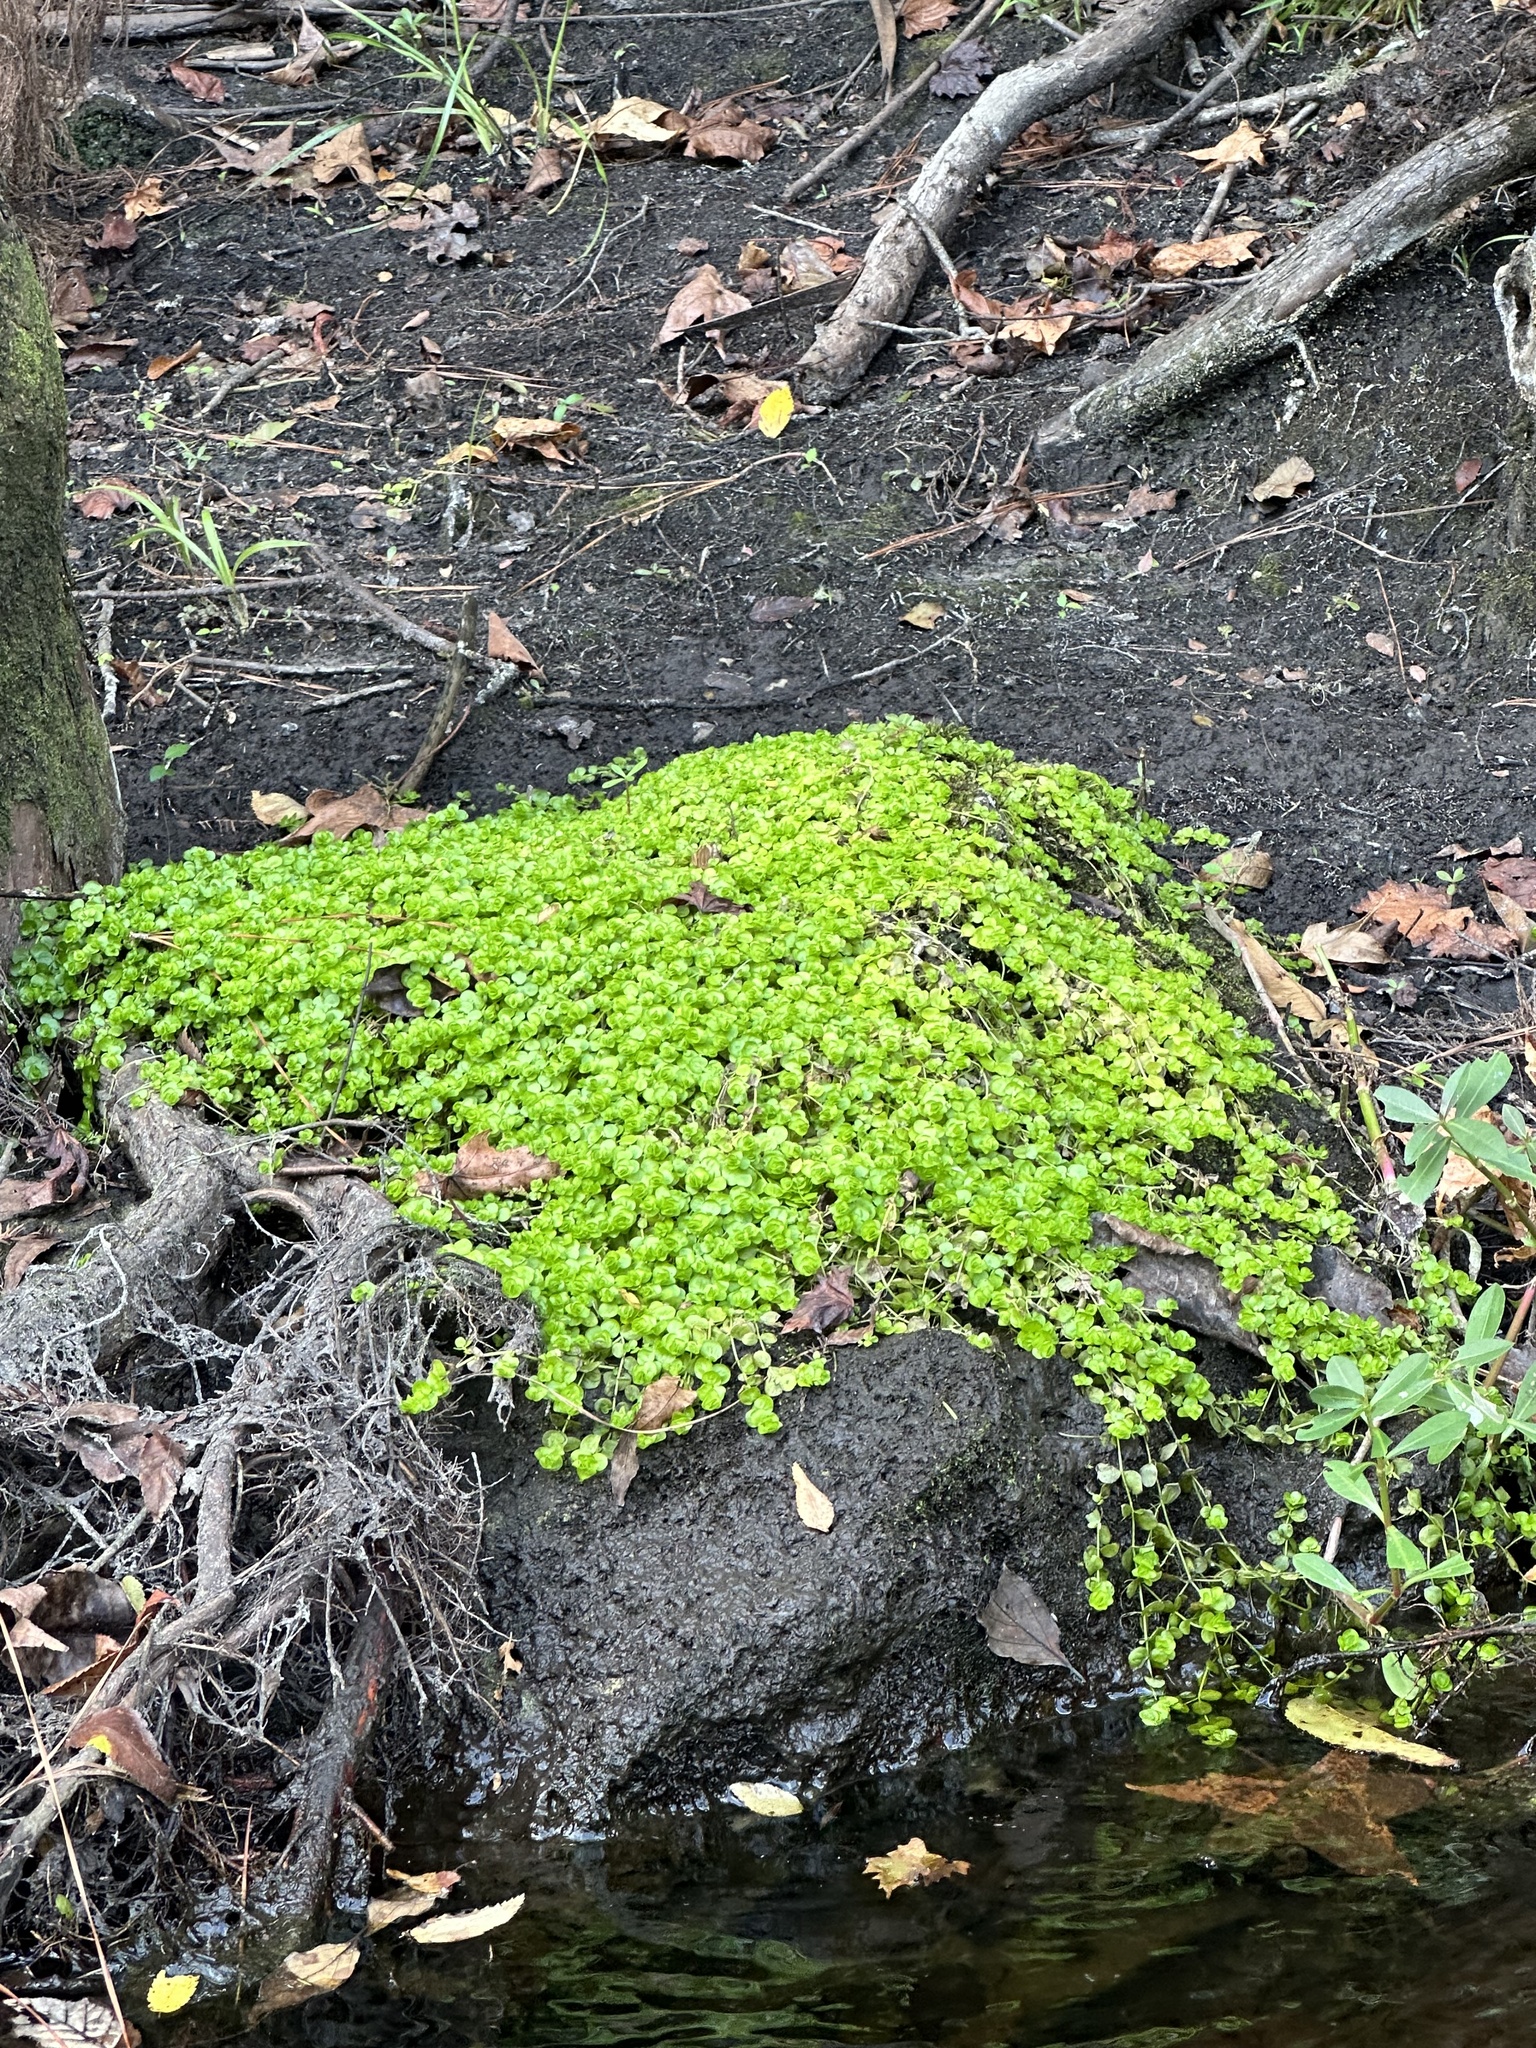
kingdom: Plantae
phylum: Tracheophyta
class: Magnoliopsida
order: Lamiales
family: Linderniaceae
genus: Micranthemum
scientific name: Micranthemum umbrosum
